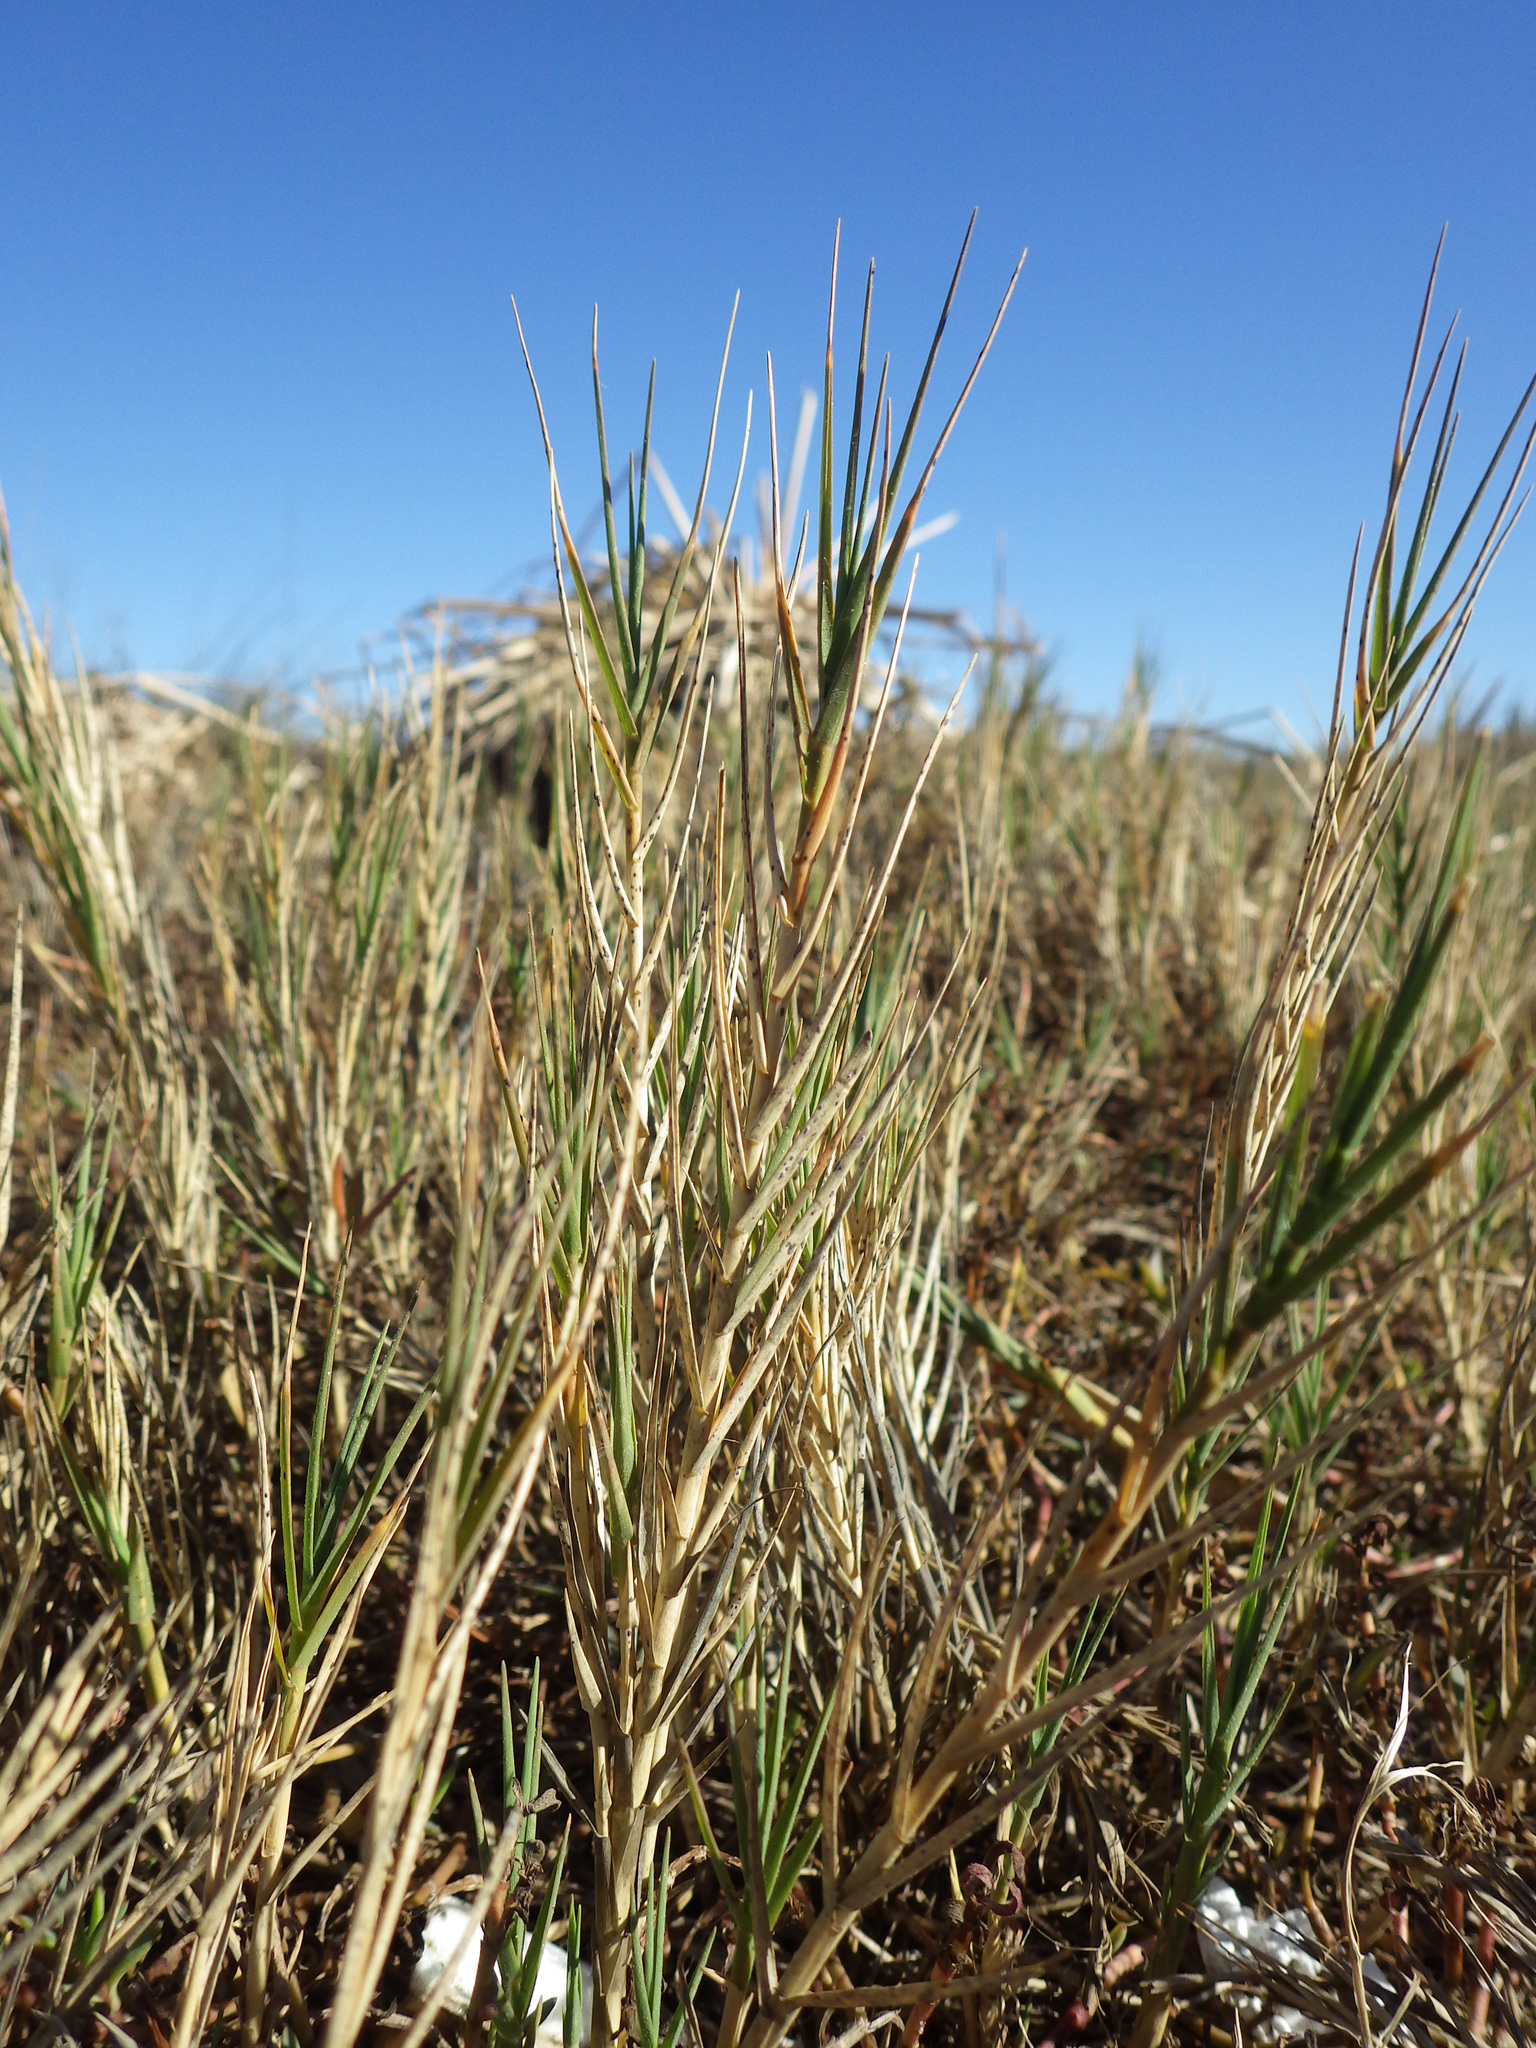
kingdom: Plantae
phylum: Tracheophyta
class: Liliopsida
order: Poales
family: Poaceae
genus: Distichlis
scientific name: Distichlis spicata
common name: Saltgrass
